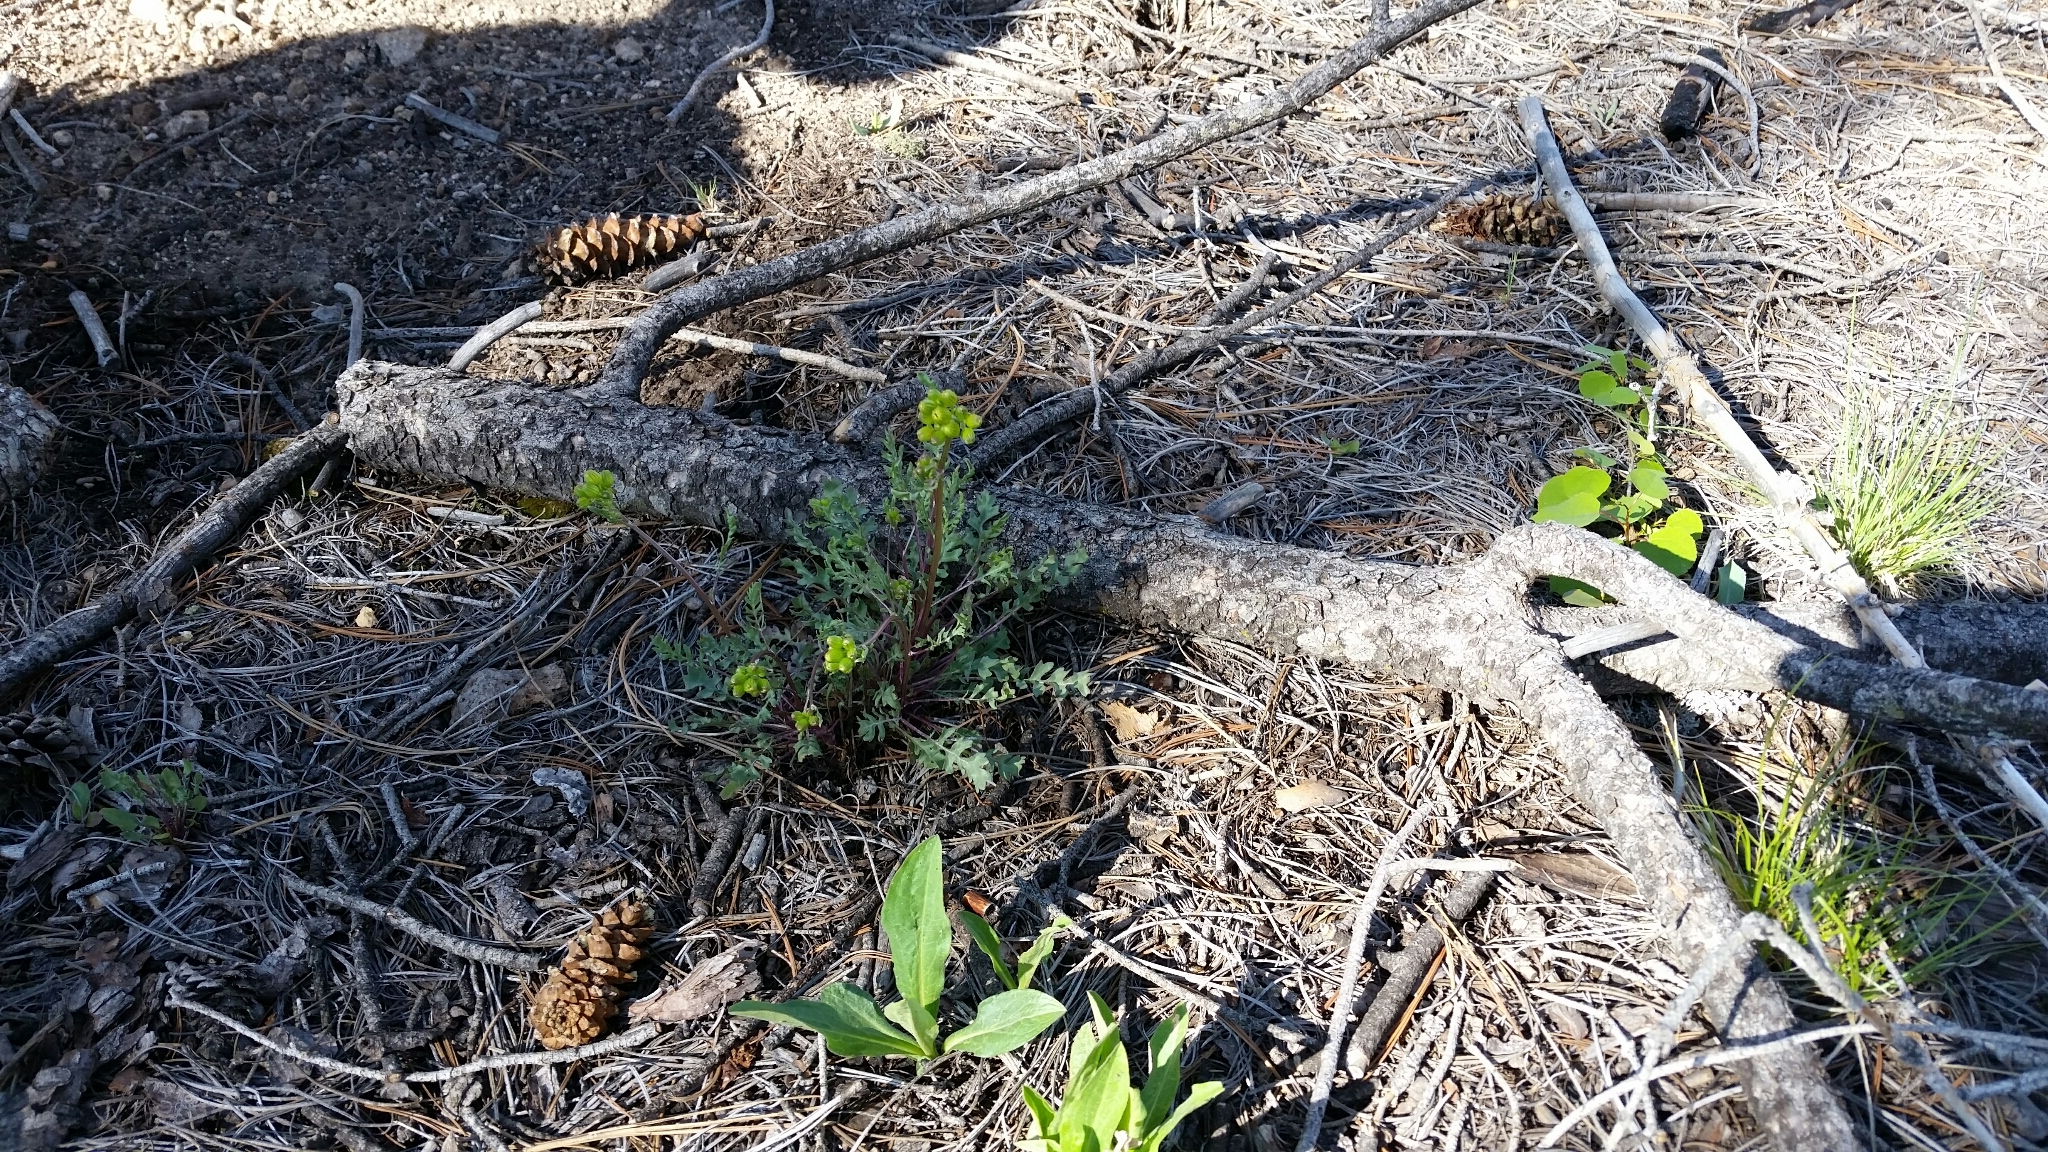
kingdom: Plantae
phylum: Tracheophyta
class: Magnoliopsida
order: Asterales
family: Asteraceae
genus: Packera
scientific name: Packera fendleri
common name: Notch-leaf butterweed
